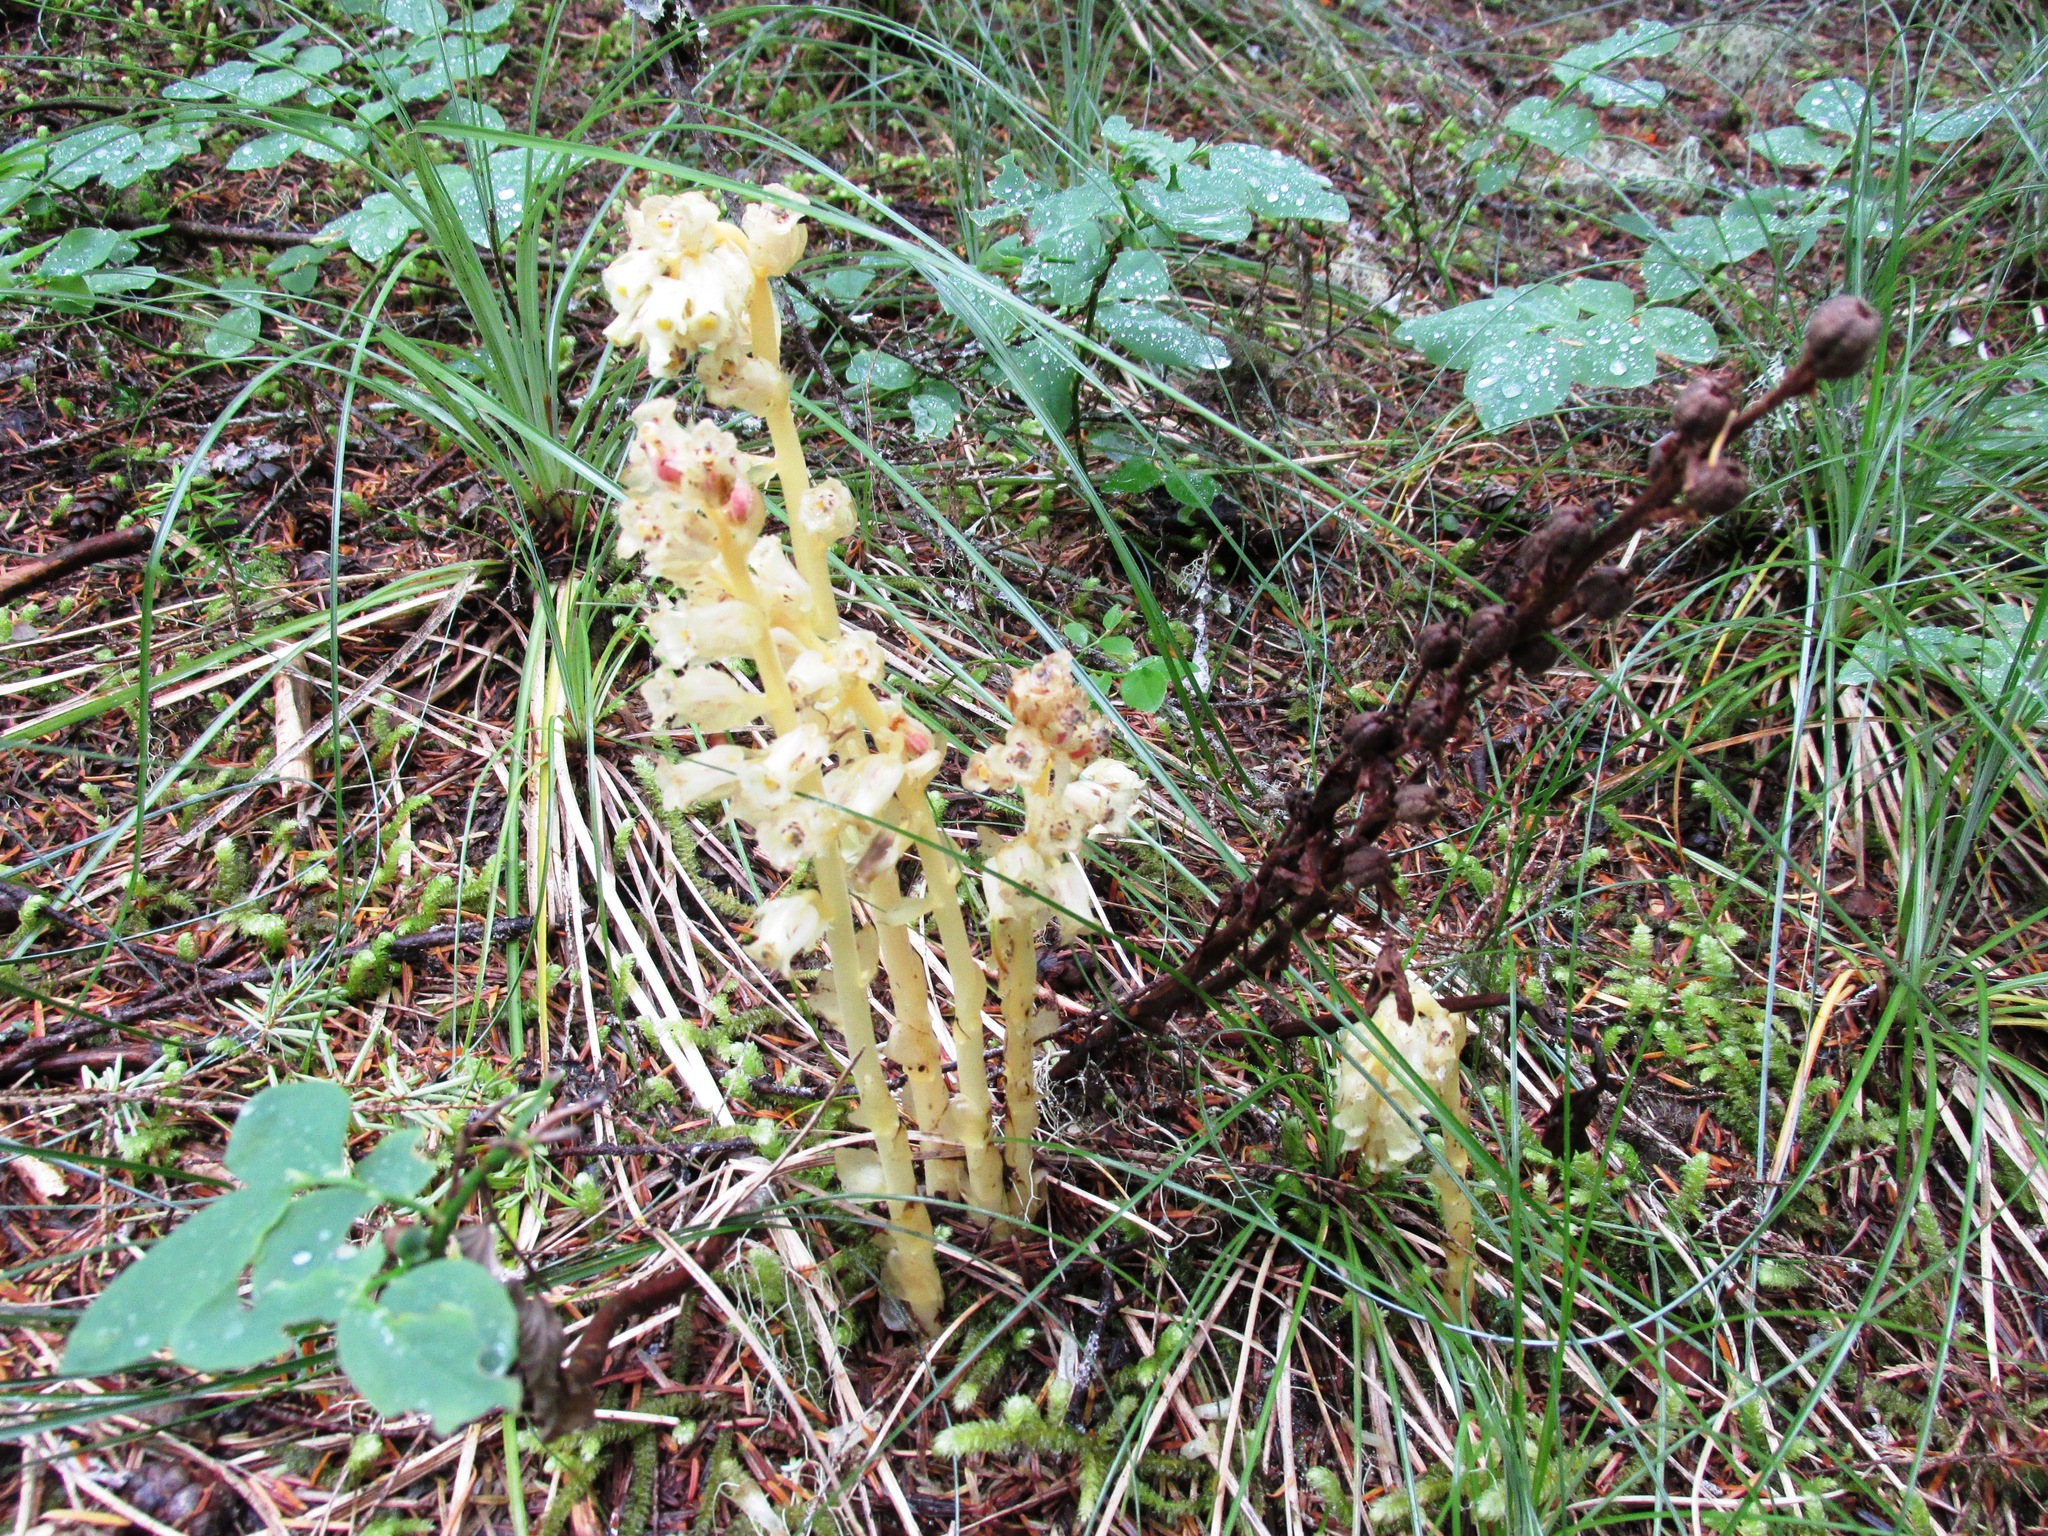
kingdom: Plantae
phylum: Tracheophyta
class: Magnoliopsida
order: Ericales
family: Ericaceae
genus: Hypopitys
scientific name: Hypopitys monotropa
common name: Yellow bird's-nest
